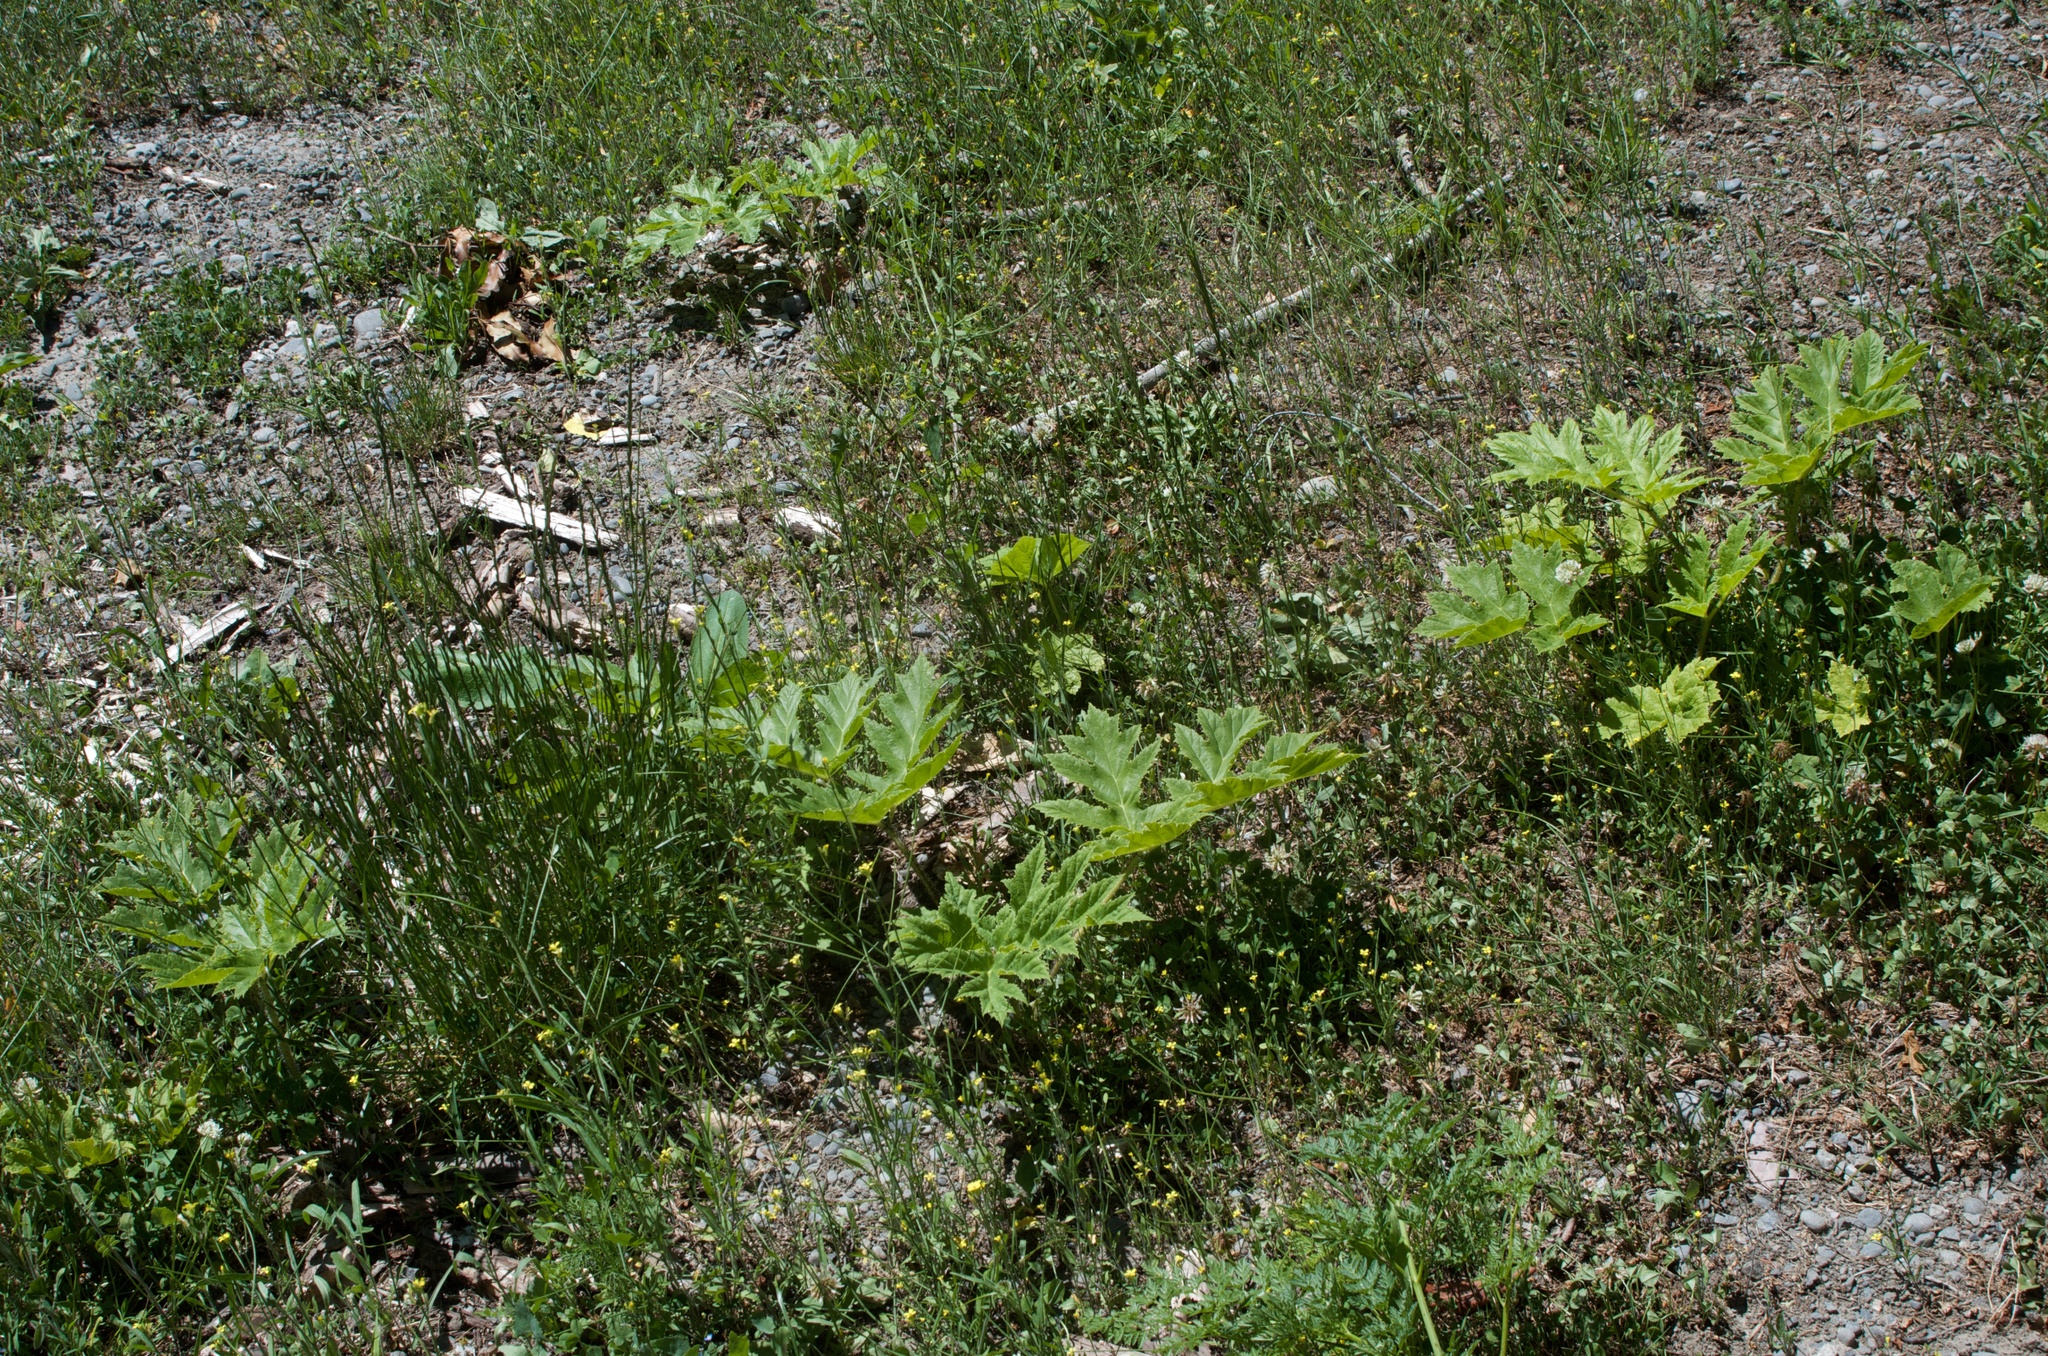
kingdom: Plantae
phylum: Tracheophyta
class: Magnoliopsida
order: Apiales
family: Apiaceae
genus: Heracleum
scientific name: Heracleum mantegazzianum
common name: Giant hogweed
